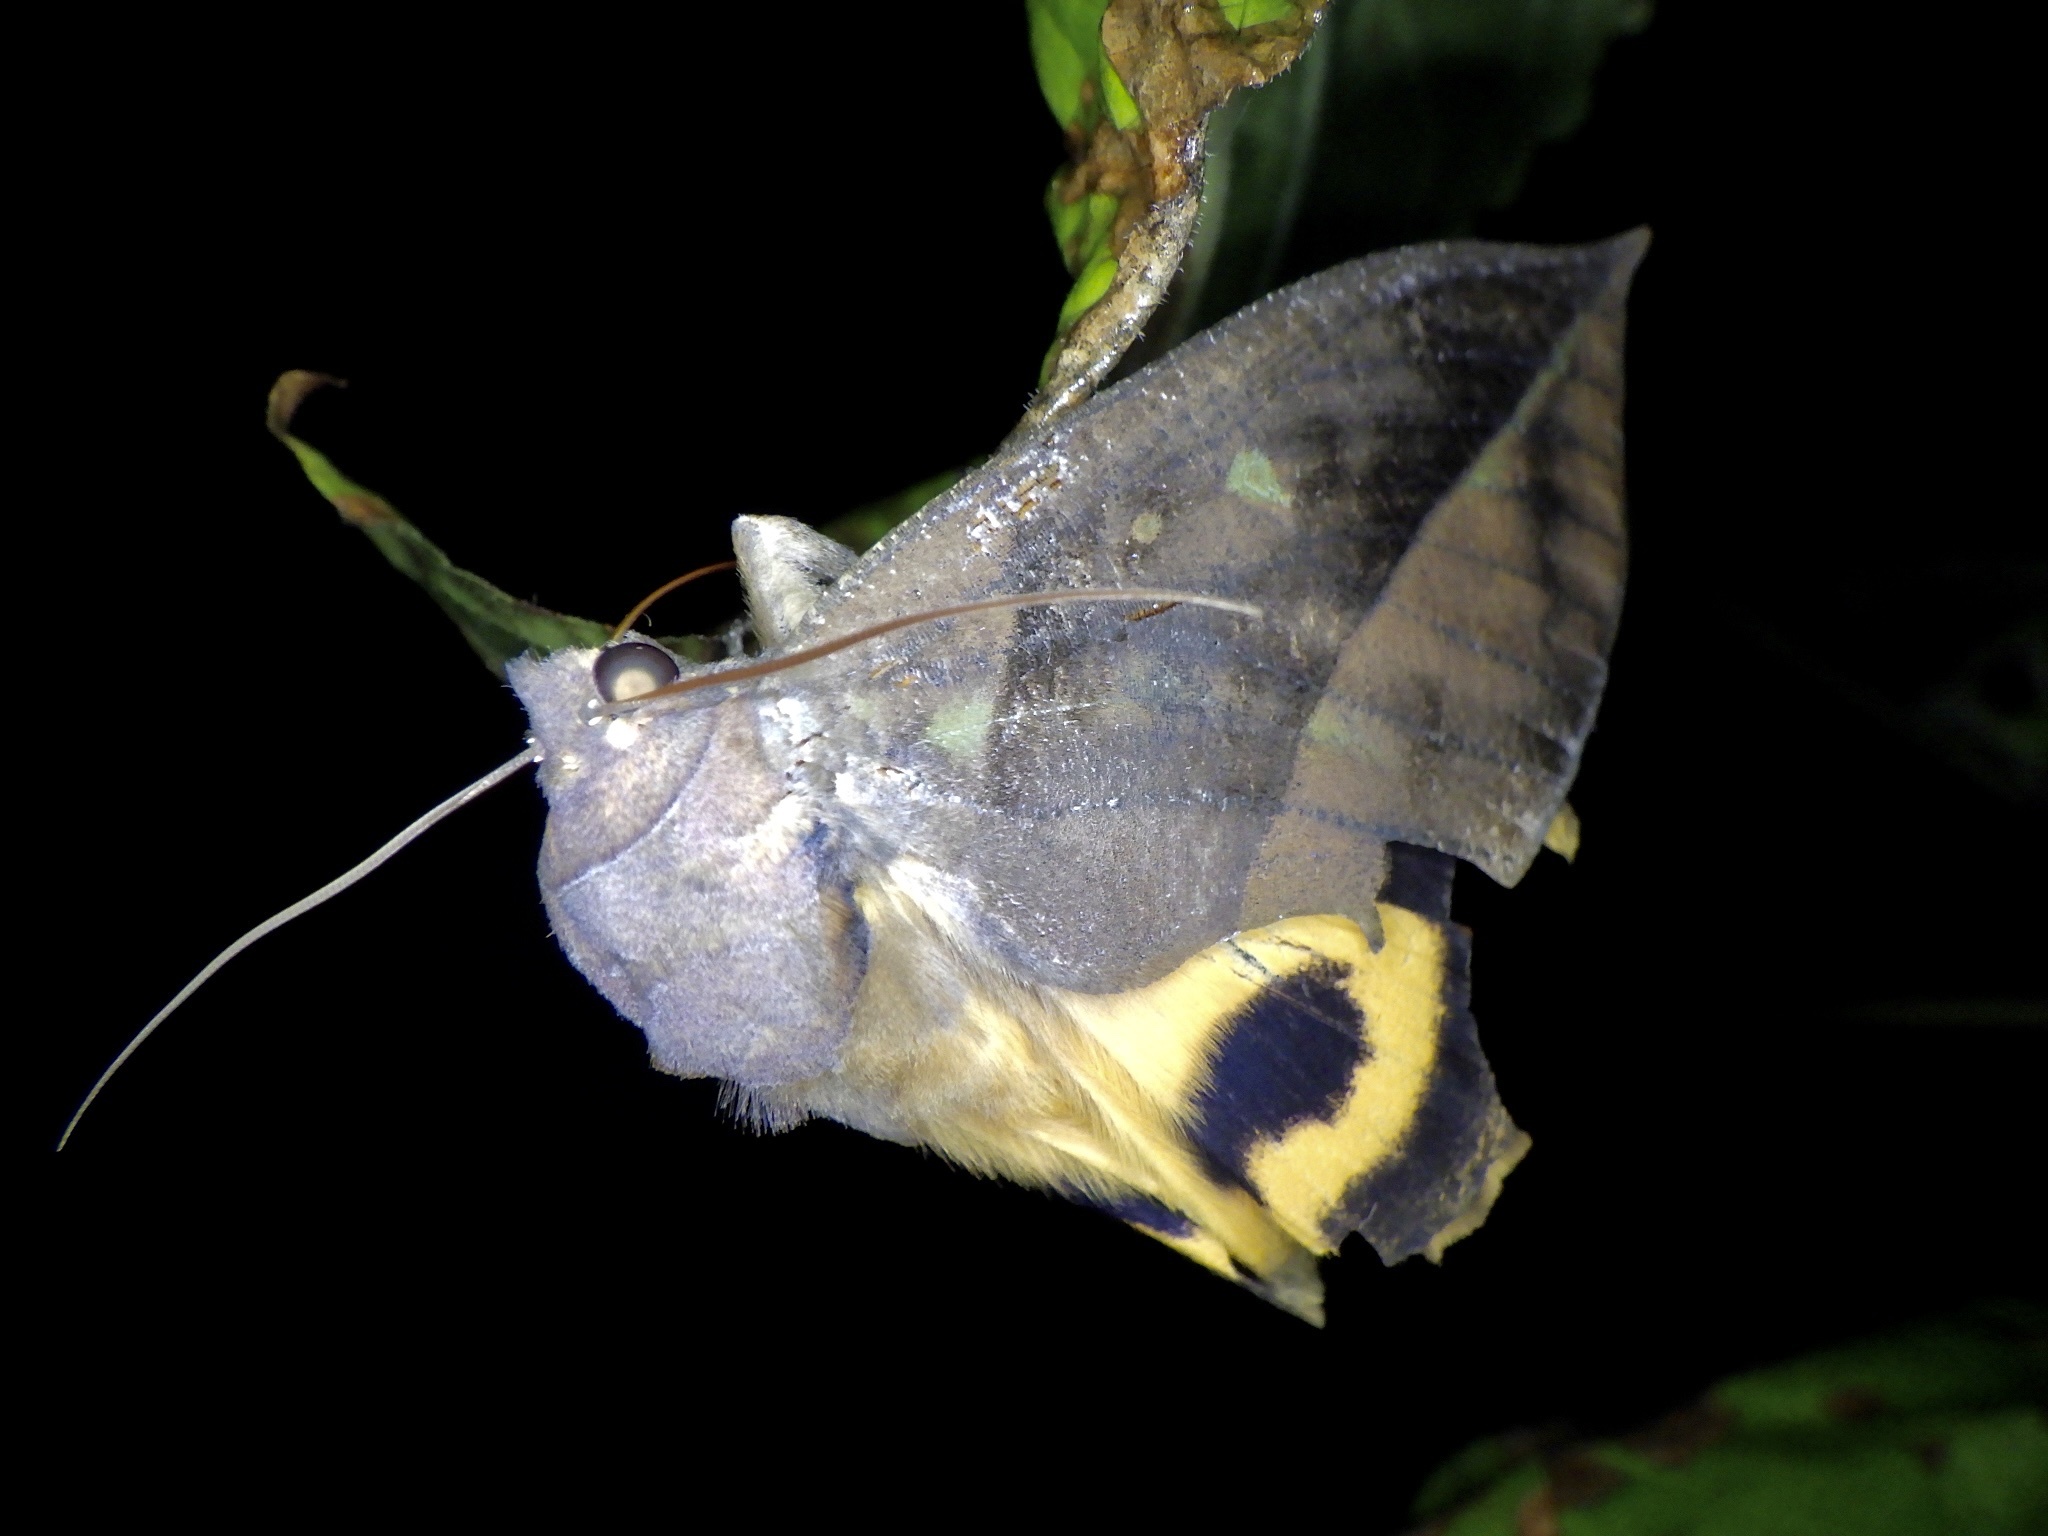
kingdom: Animalia
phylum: Arthropoda
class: Insecta
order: Lepidoptera
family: Erebidae
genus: Eudocima
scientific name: Eudocima tyrannus
